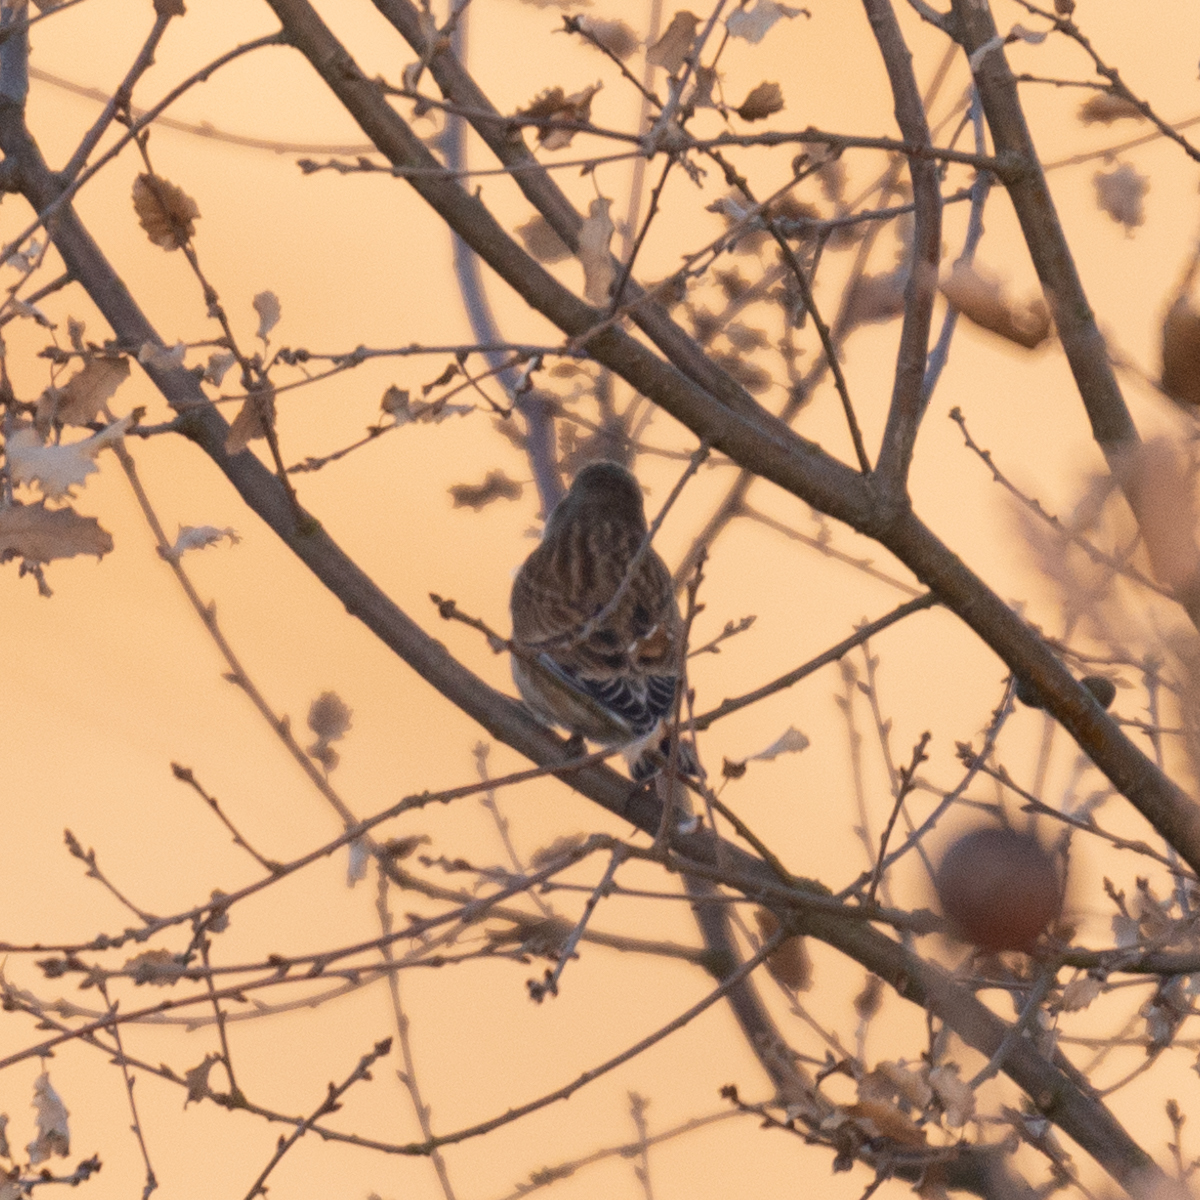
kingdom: Animalia
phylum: Chordata
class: Aves
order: Passeriformes
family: Fringillidae
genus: Linaria
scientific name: Linaria cannabina
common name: Common linnet
